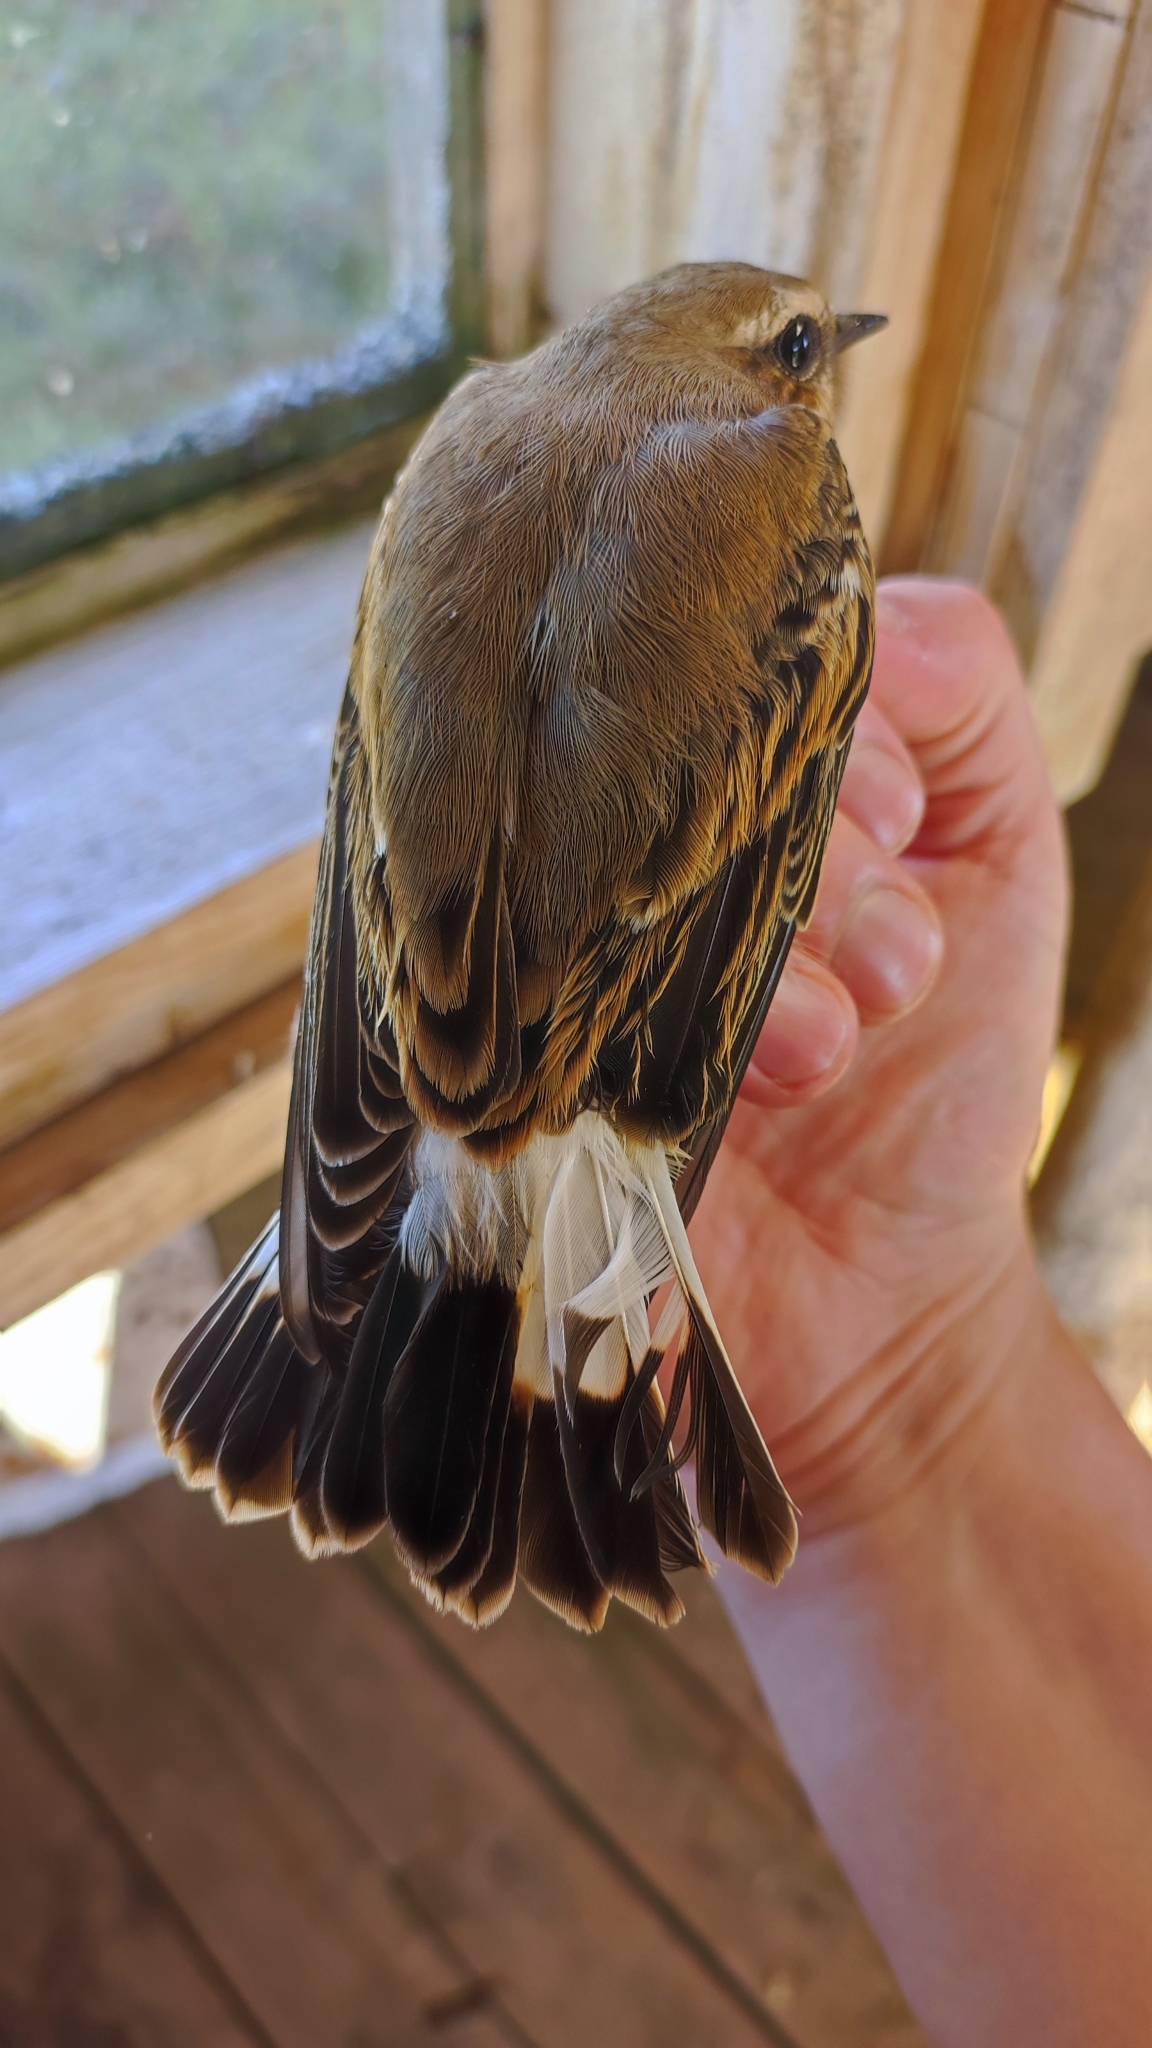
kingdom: Animalia
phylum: Chordata
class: Aves
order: Passeriformes
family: Muscicapidae
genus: Oenanthe
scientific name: Oenanthe oenanthe
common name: Northern wheatear
